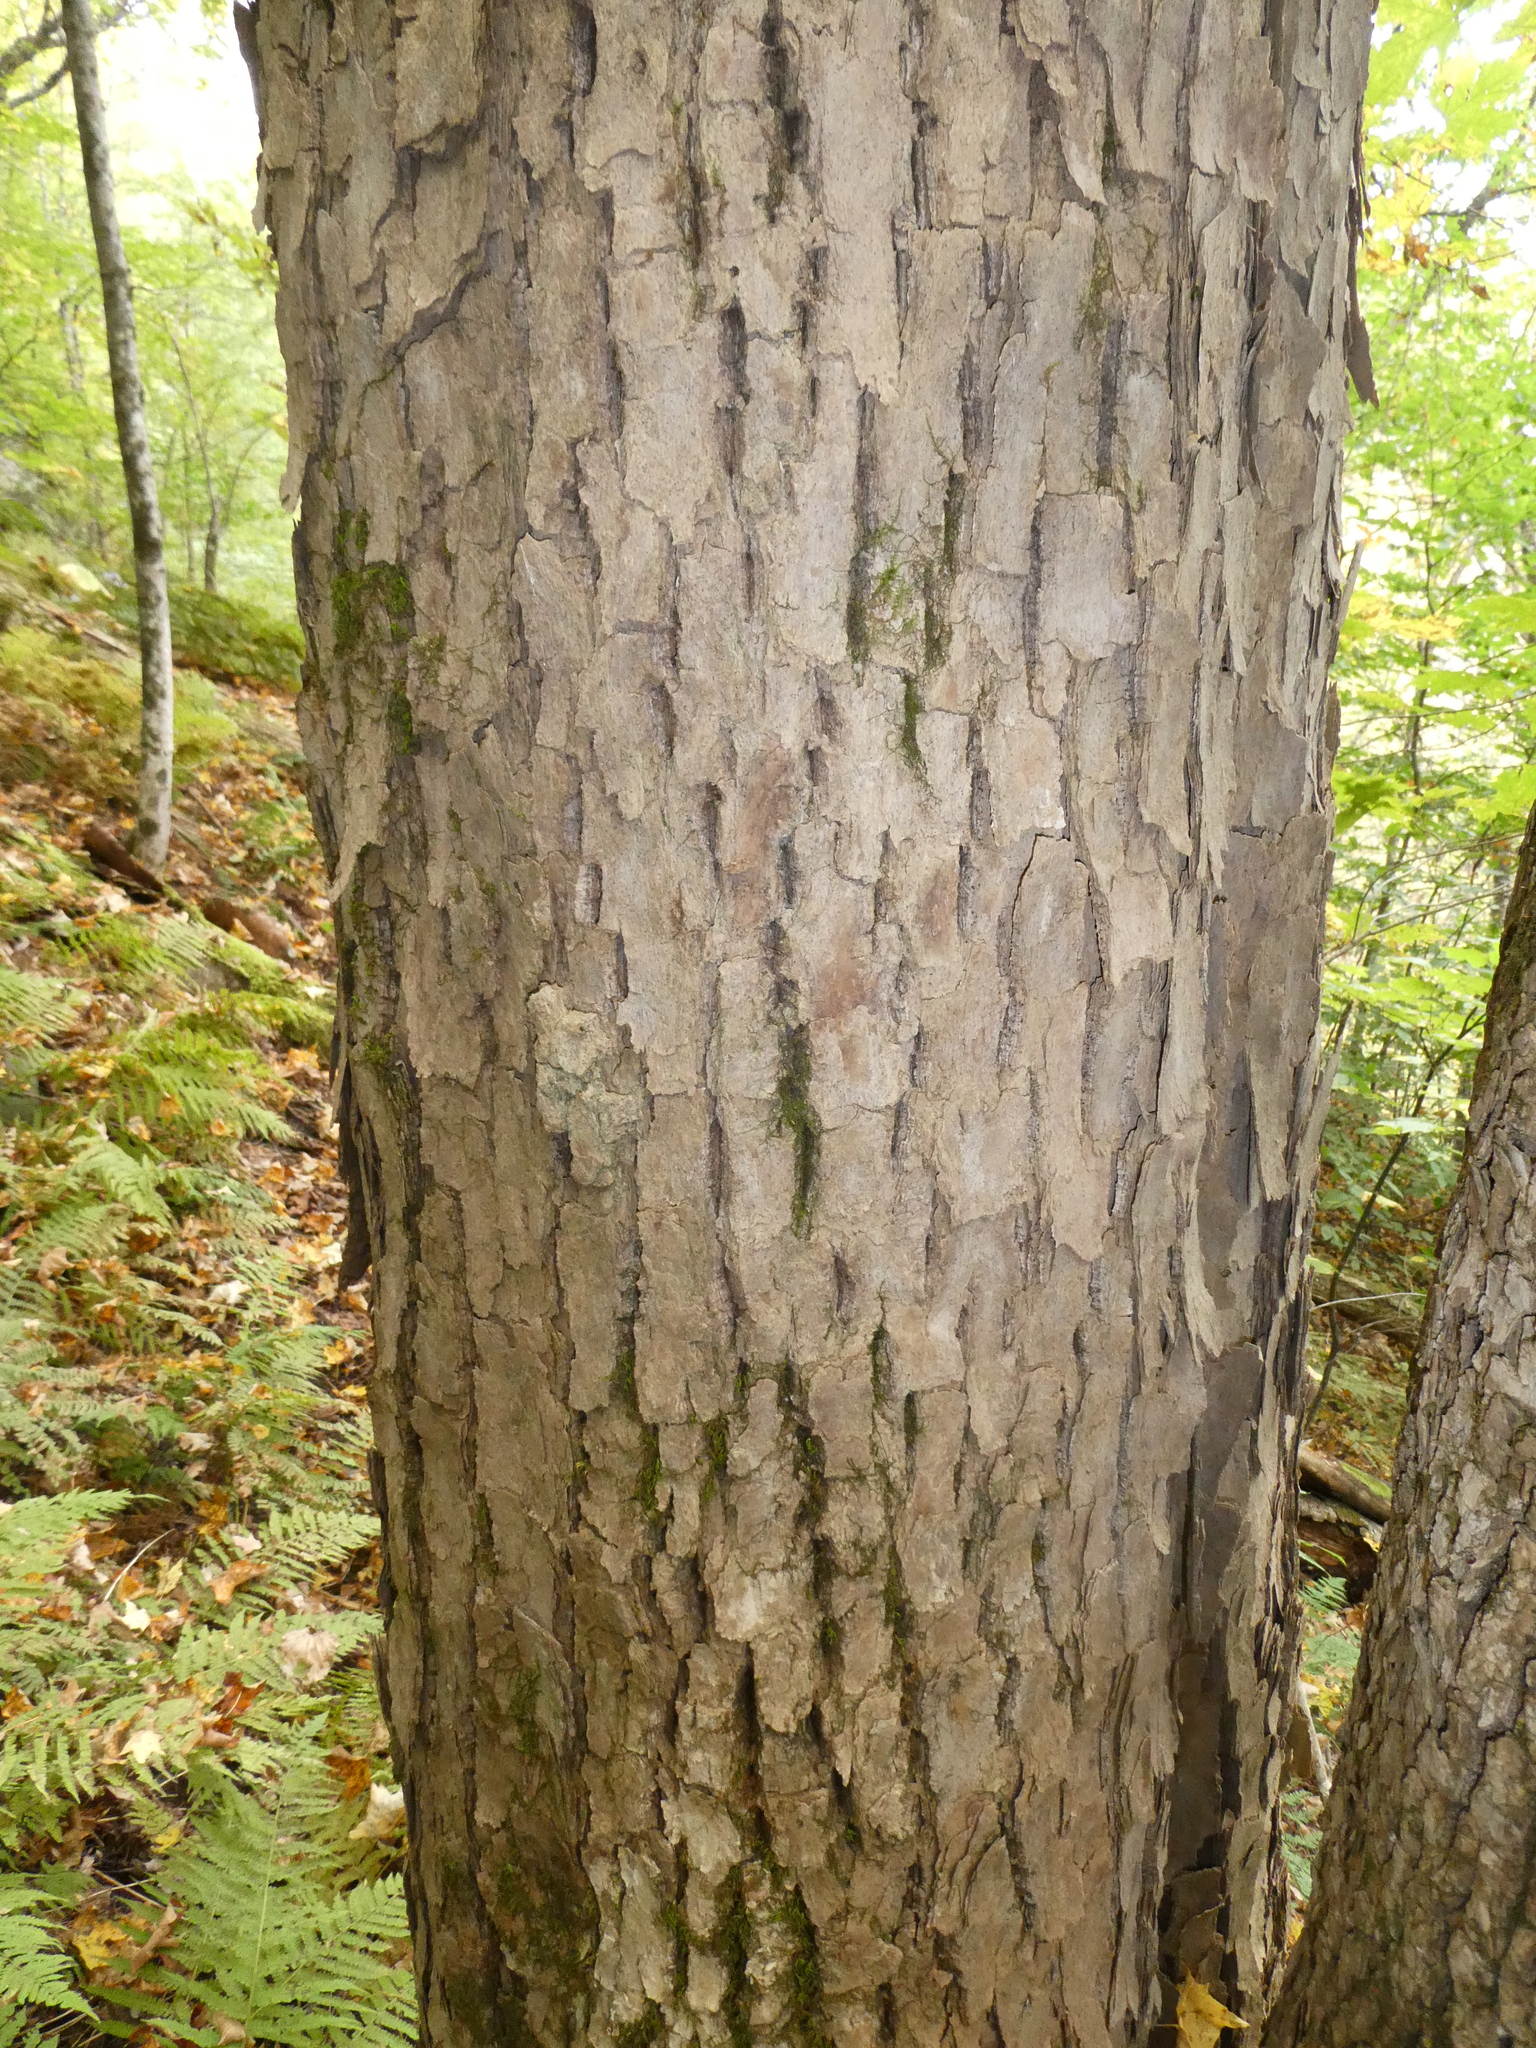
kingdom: Plantae
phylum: Tracheophyta
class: Magnoliopsida
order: Lamiales
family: Oleaceae
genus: Fraxinus
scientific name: Fraxinus
